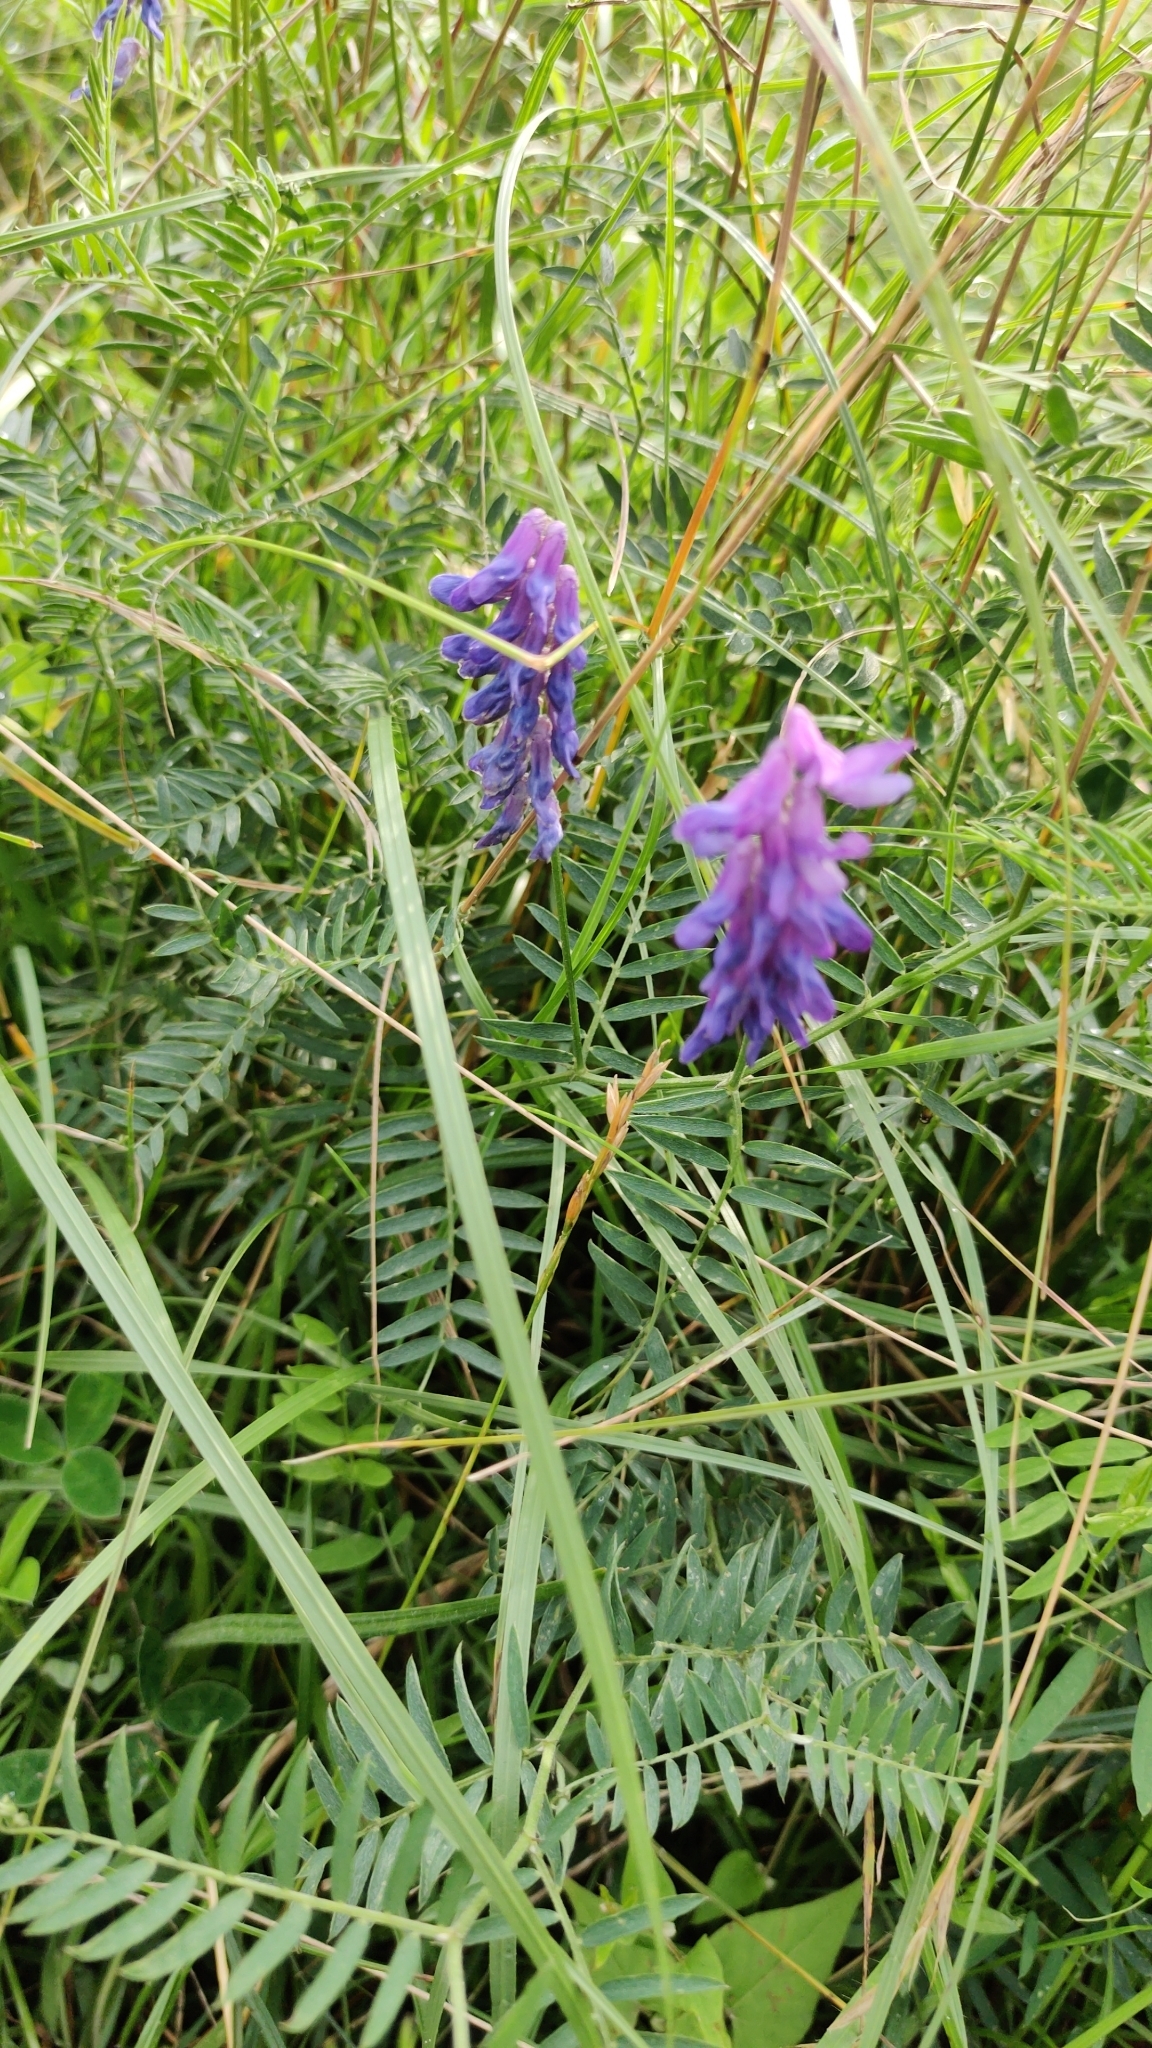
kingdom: Plantae
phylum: Tracheophyta
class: Magnoliopsida
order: Fabales
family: Fabaceae
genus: Vicia
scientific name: Vicia cracca
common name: Bird vetch
